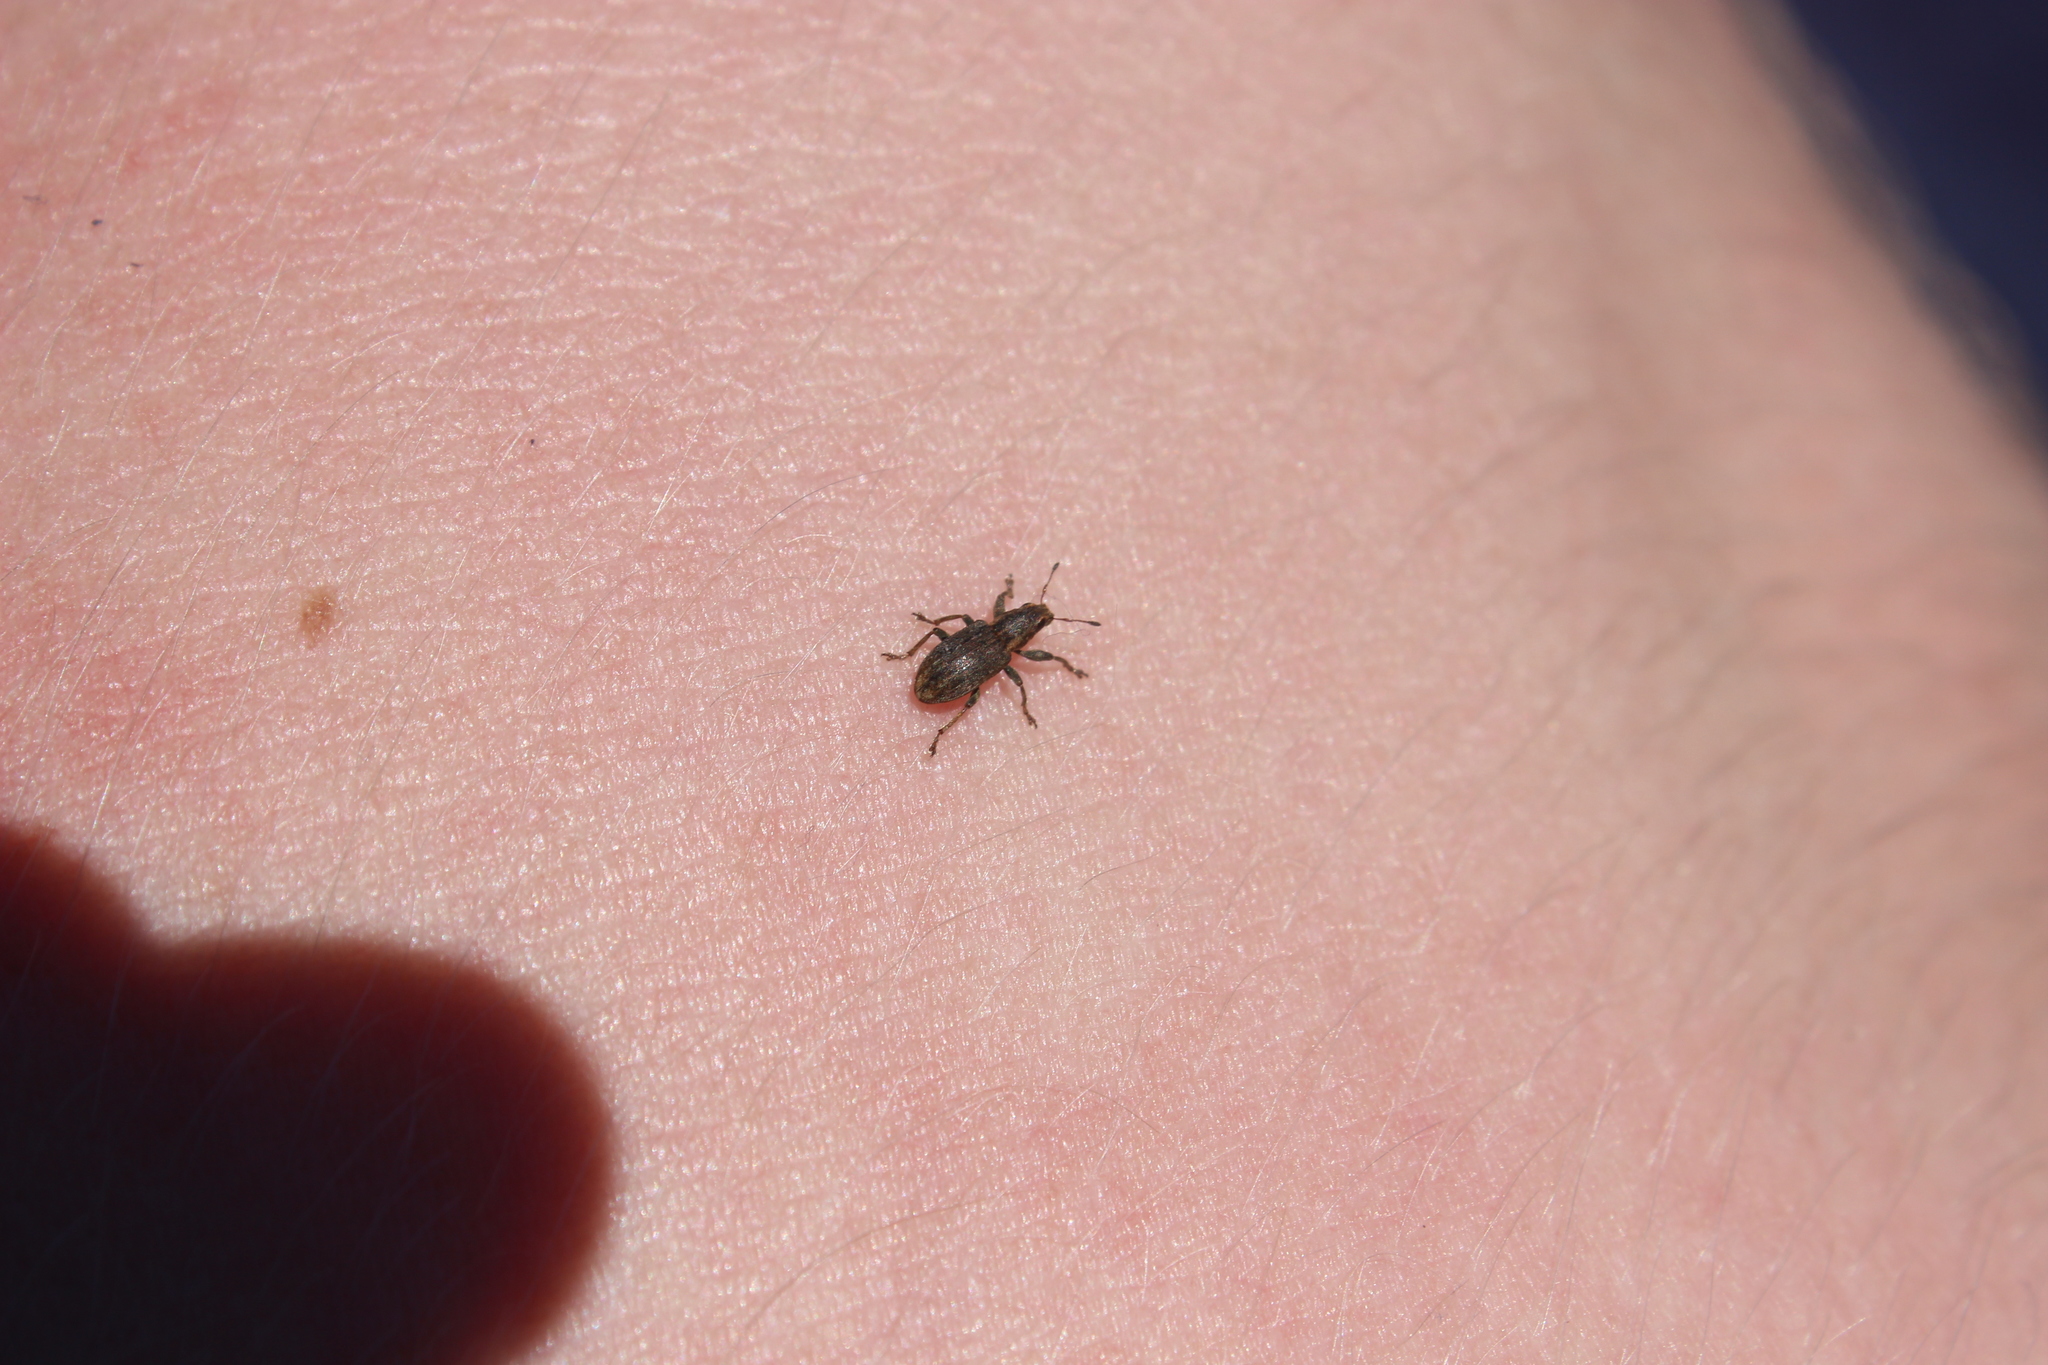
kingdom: Animalia
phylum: Arthropoda
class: Insecta
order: Coleoptera
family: Curculionidae
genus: Sitona
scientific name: Sitona obsoletus
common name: Weevil
